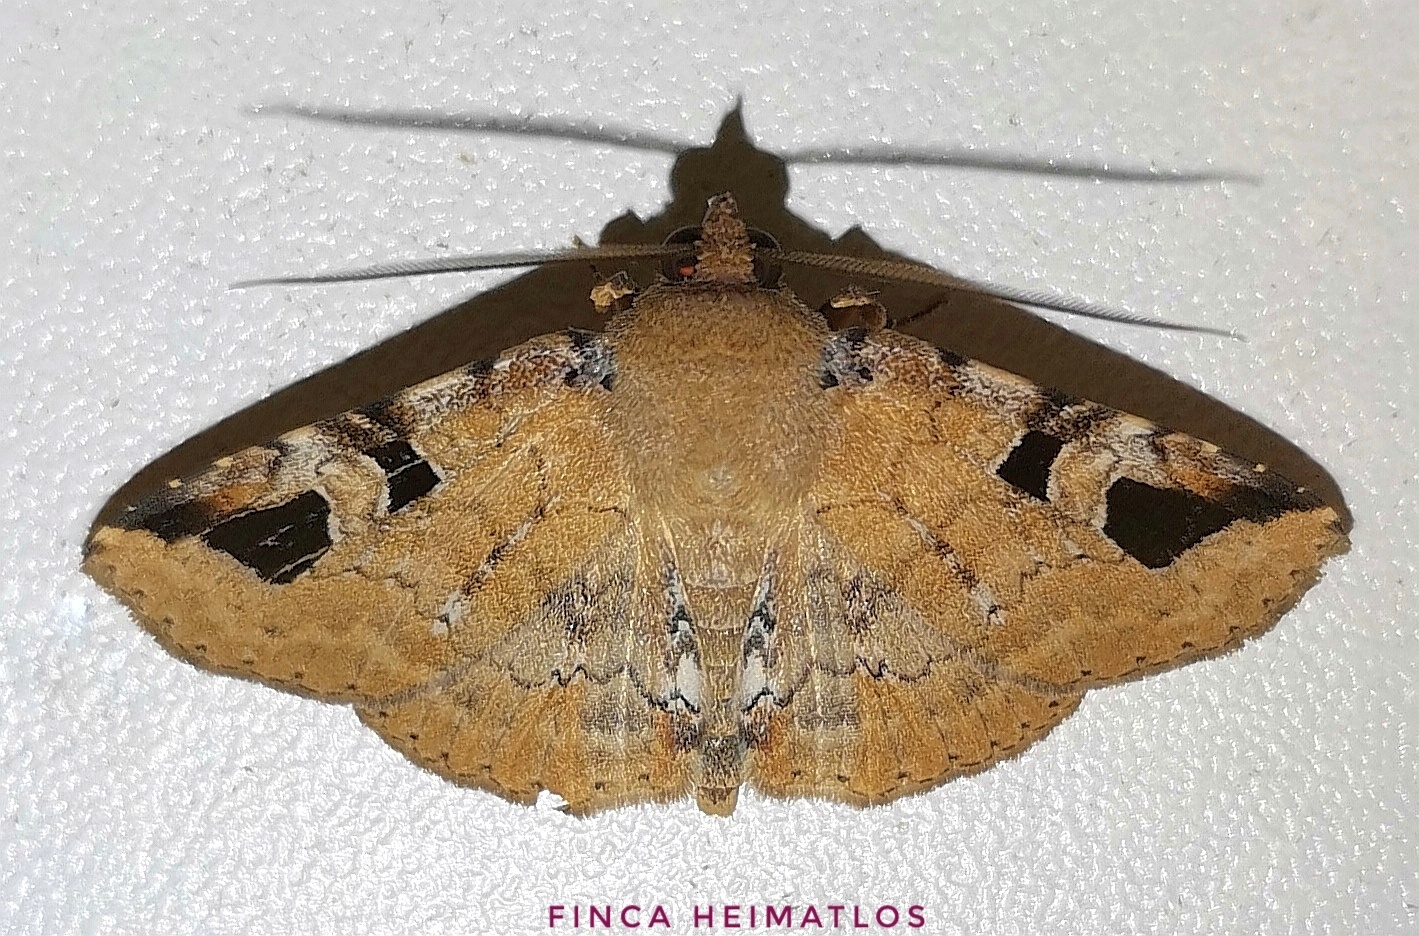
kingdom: Animalia
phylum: Arthropoda
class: Insecta
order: Lepidoptera
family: Erebidae
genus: Manbuta
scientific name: Manbuta Triommatodes costinotata
